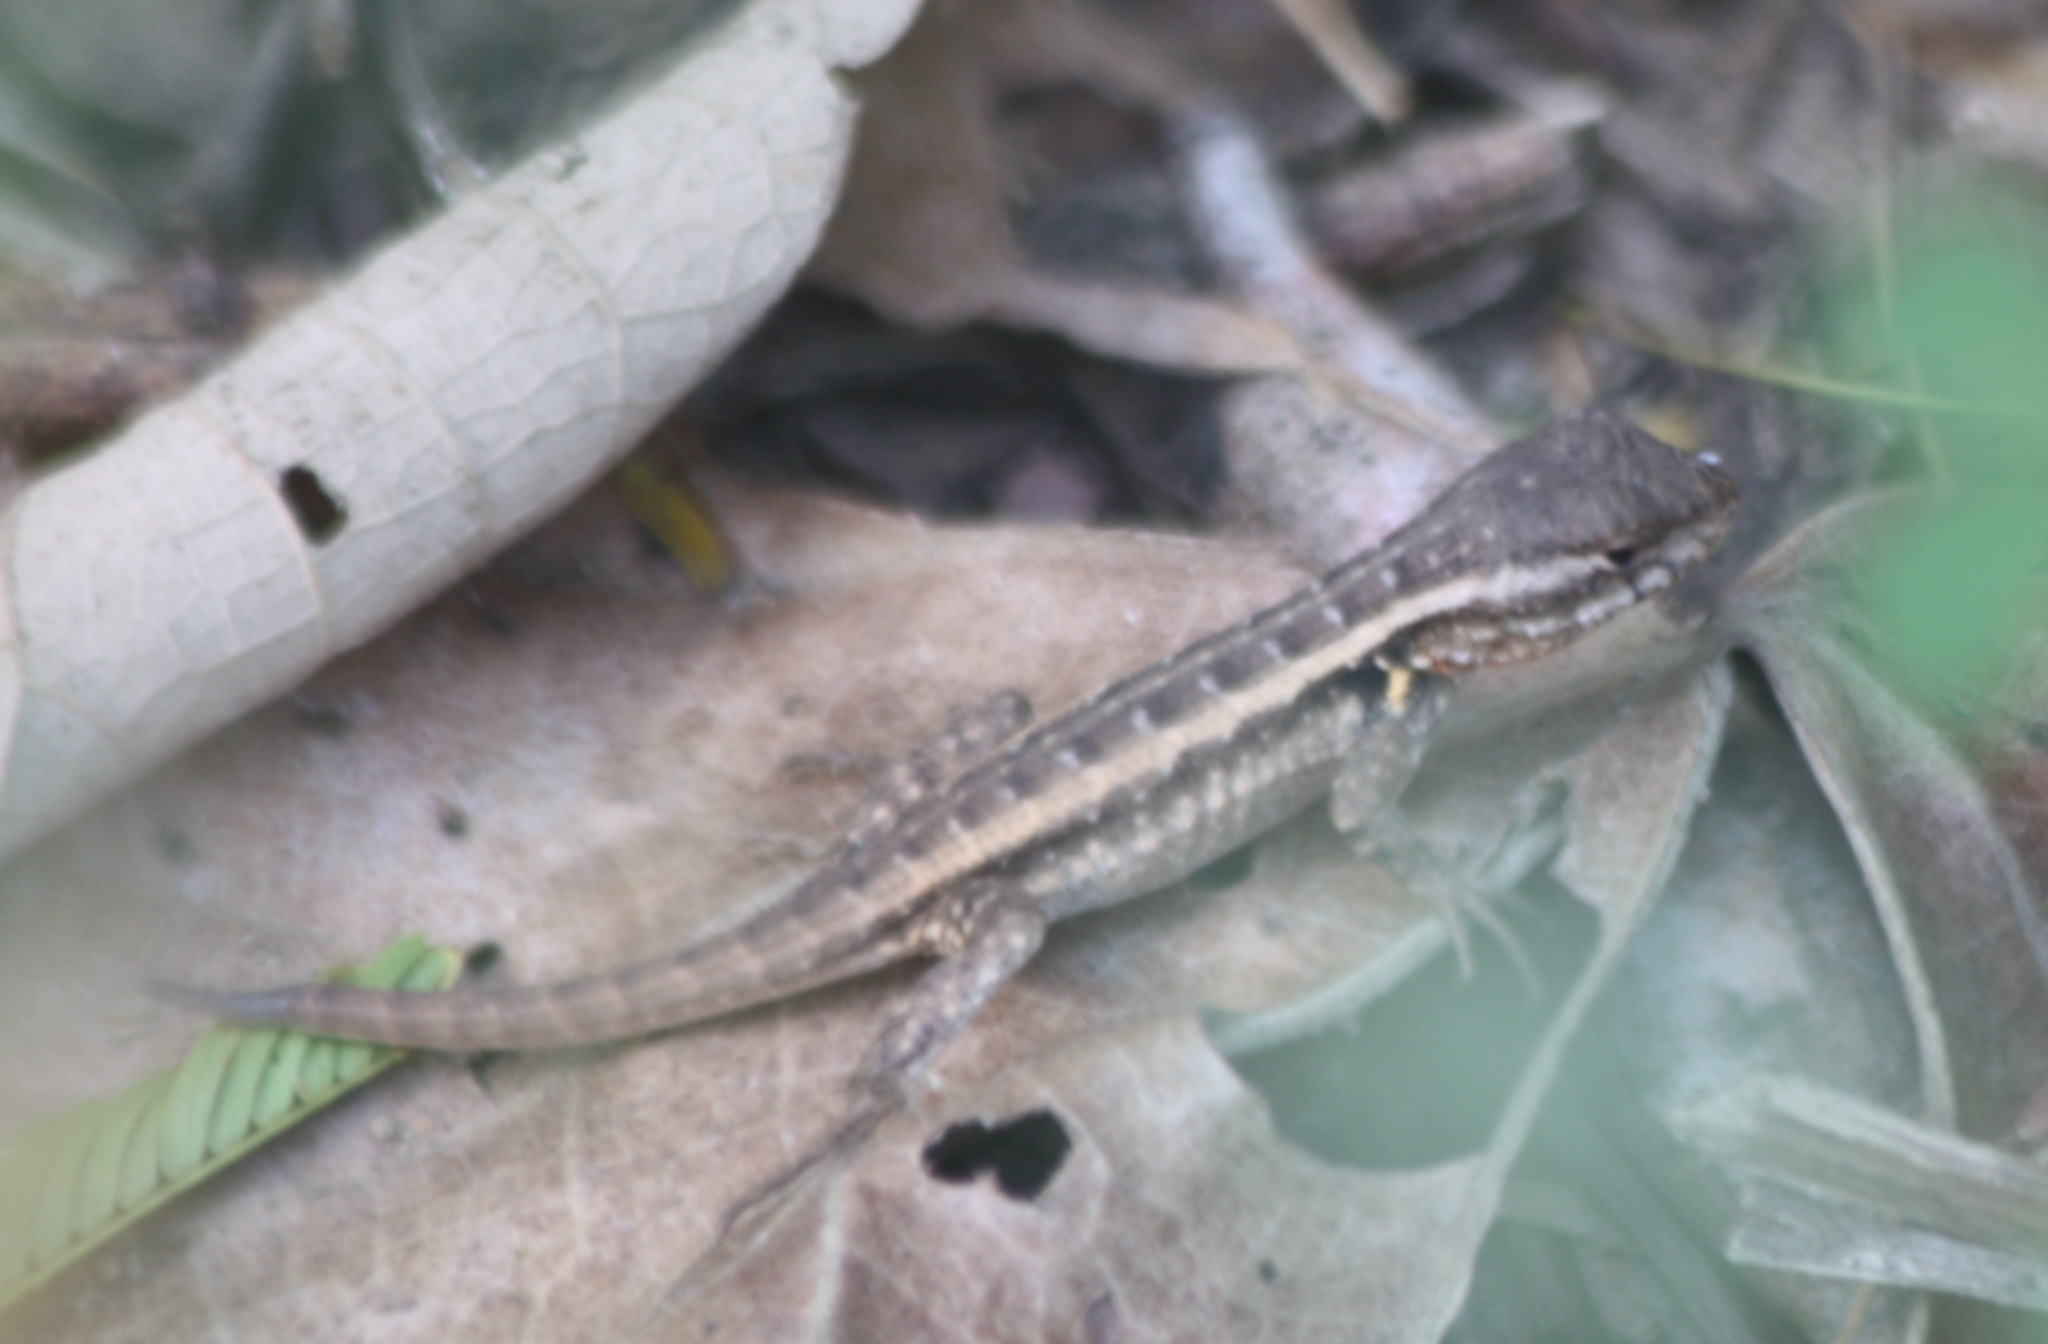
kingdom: Animalia
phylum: Chordata
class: Squamata
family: Phrynosomatidae
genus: Sceloporus
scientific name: Sceloporus variabilis
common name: Rosebelly lizard
